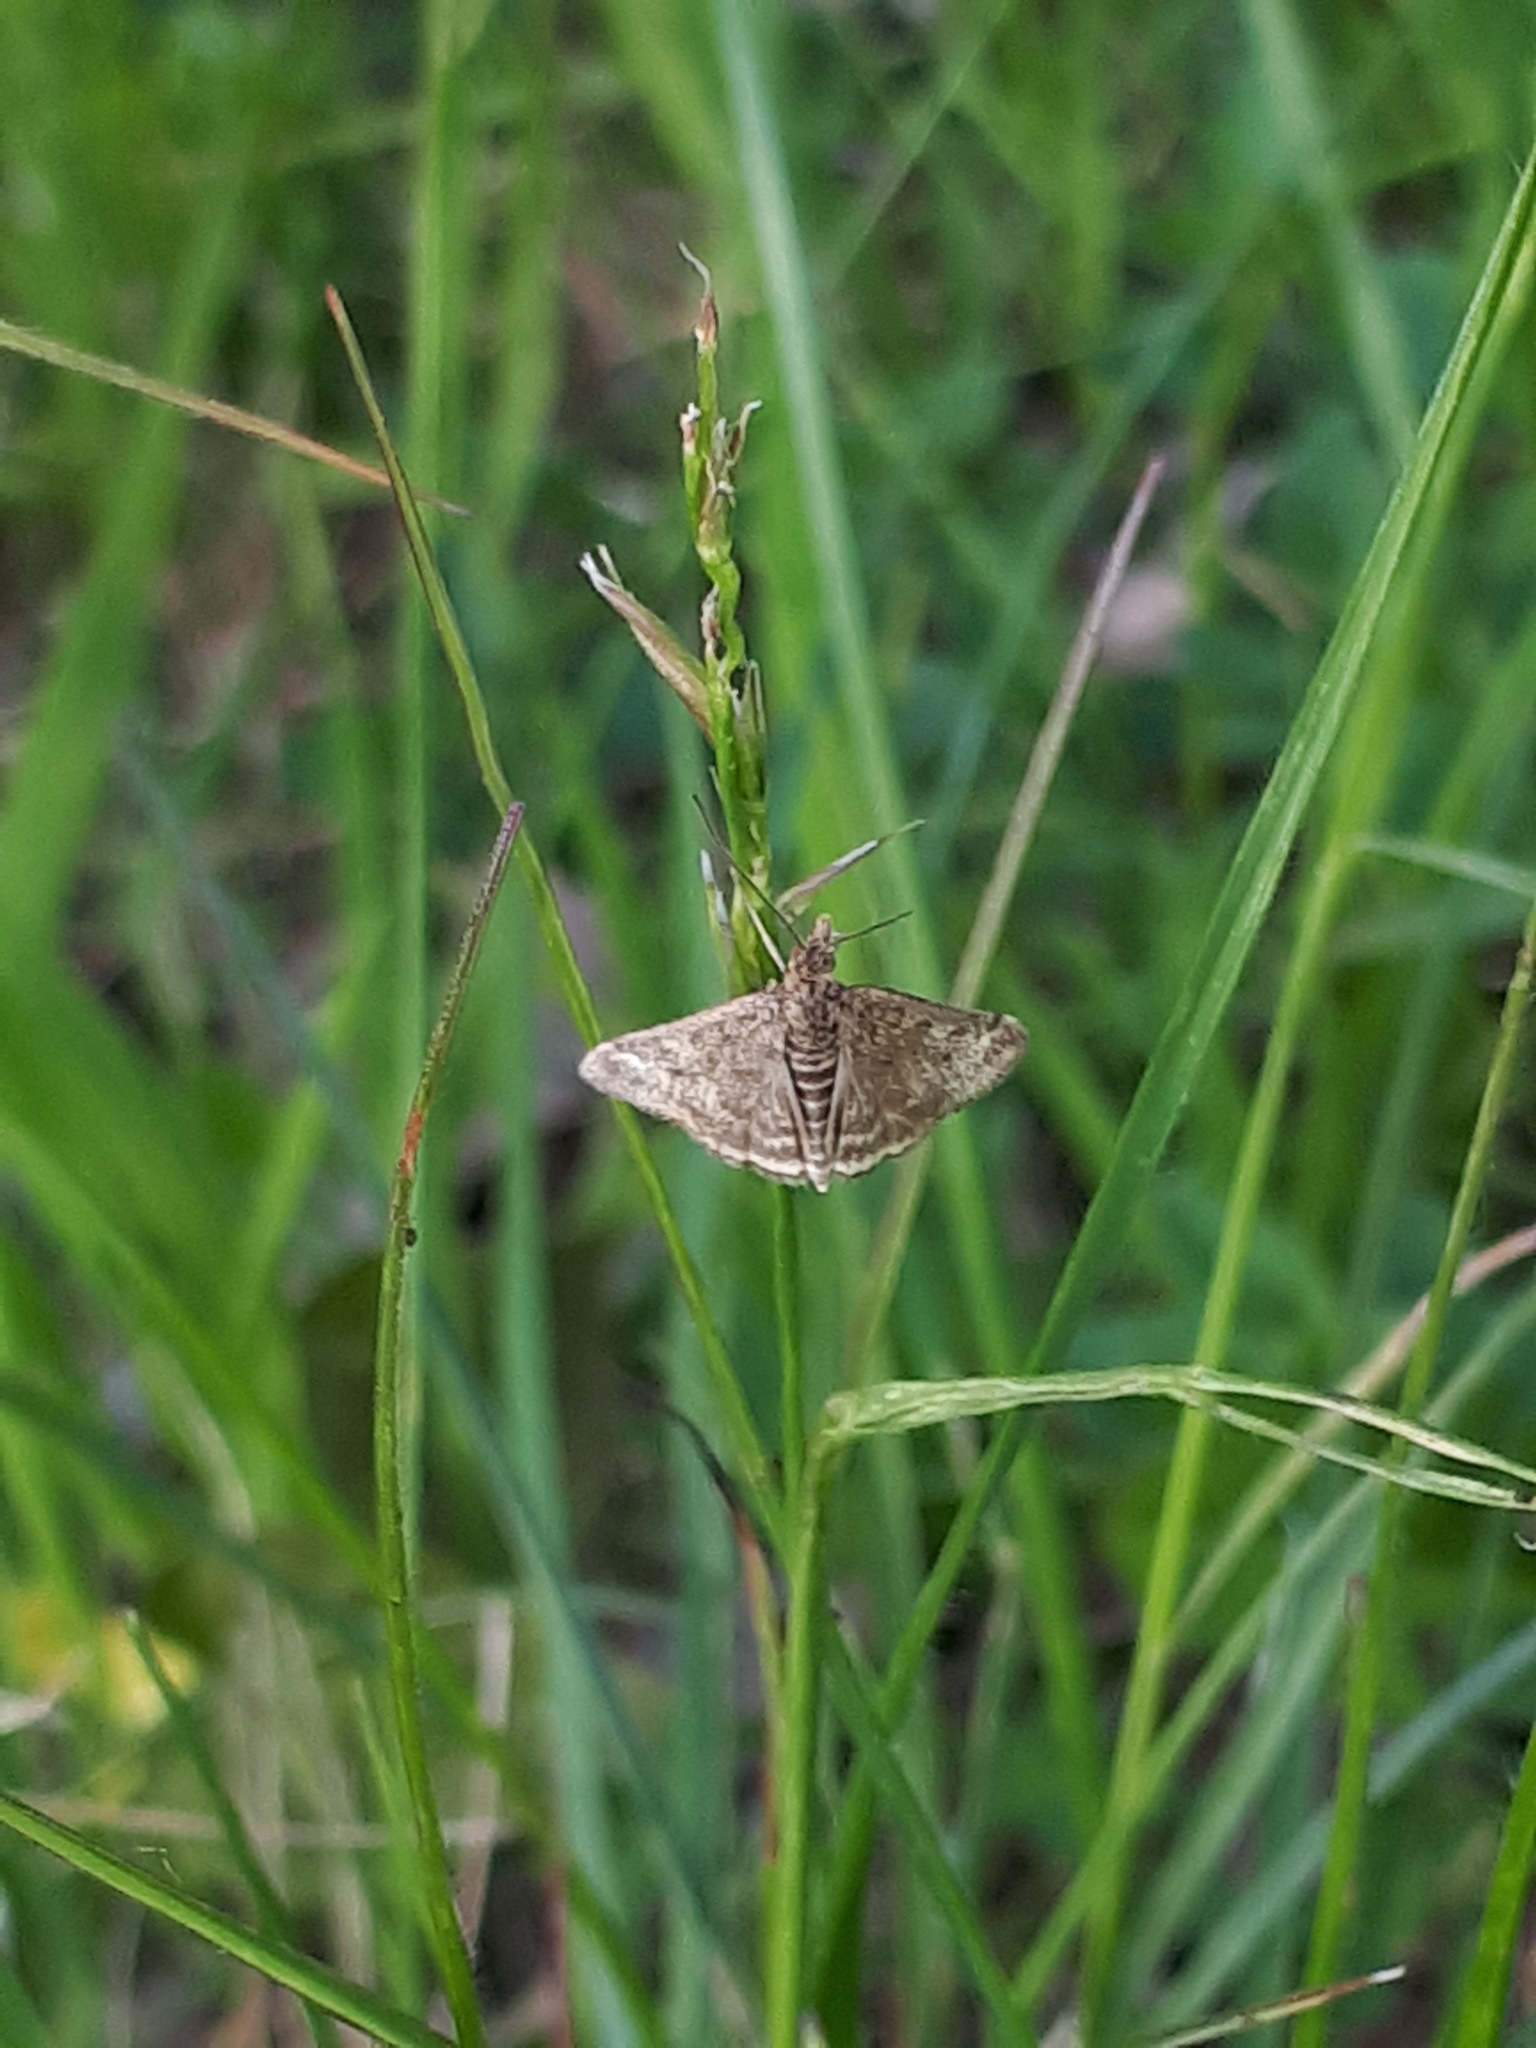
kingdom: Animalia
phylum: Arthropoda
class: Insecta
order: Lepidoptera
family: Crambidae
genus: Pyrausta
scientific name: Pyrausta despicata
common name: Straw-barred pearl
